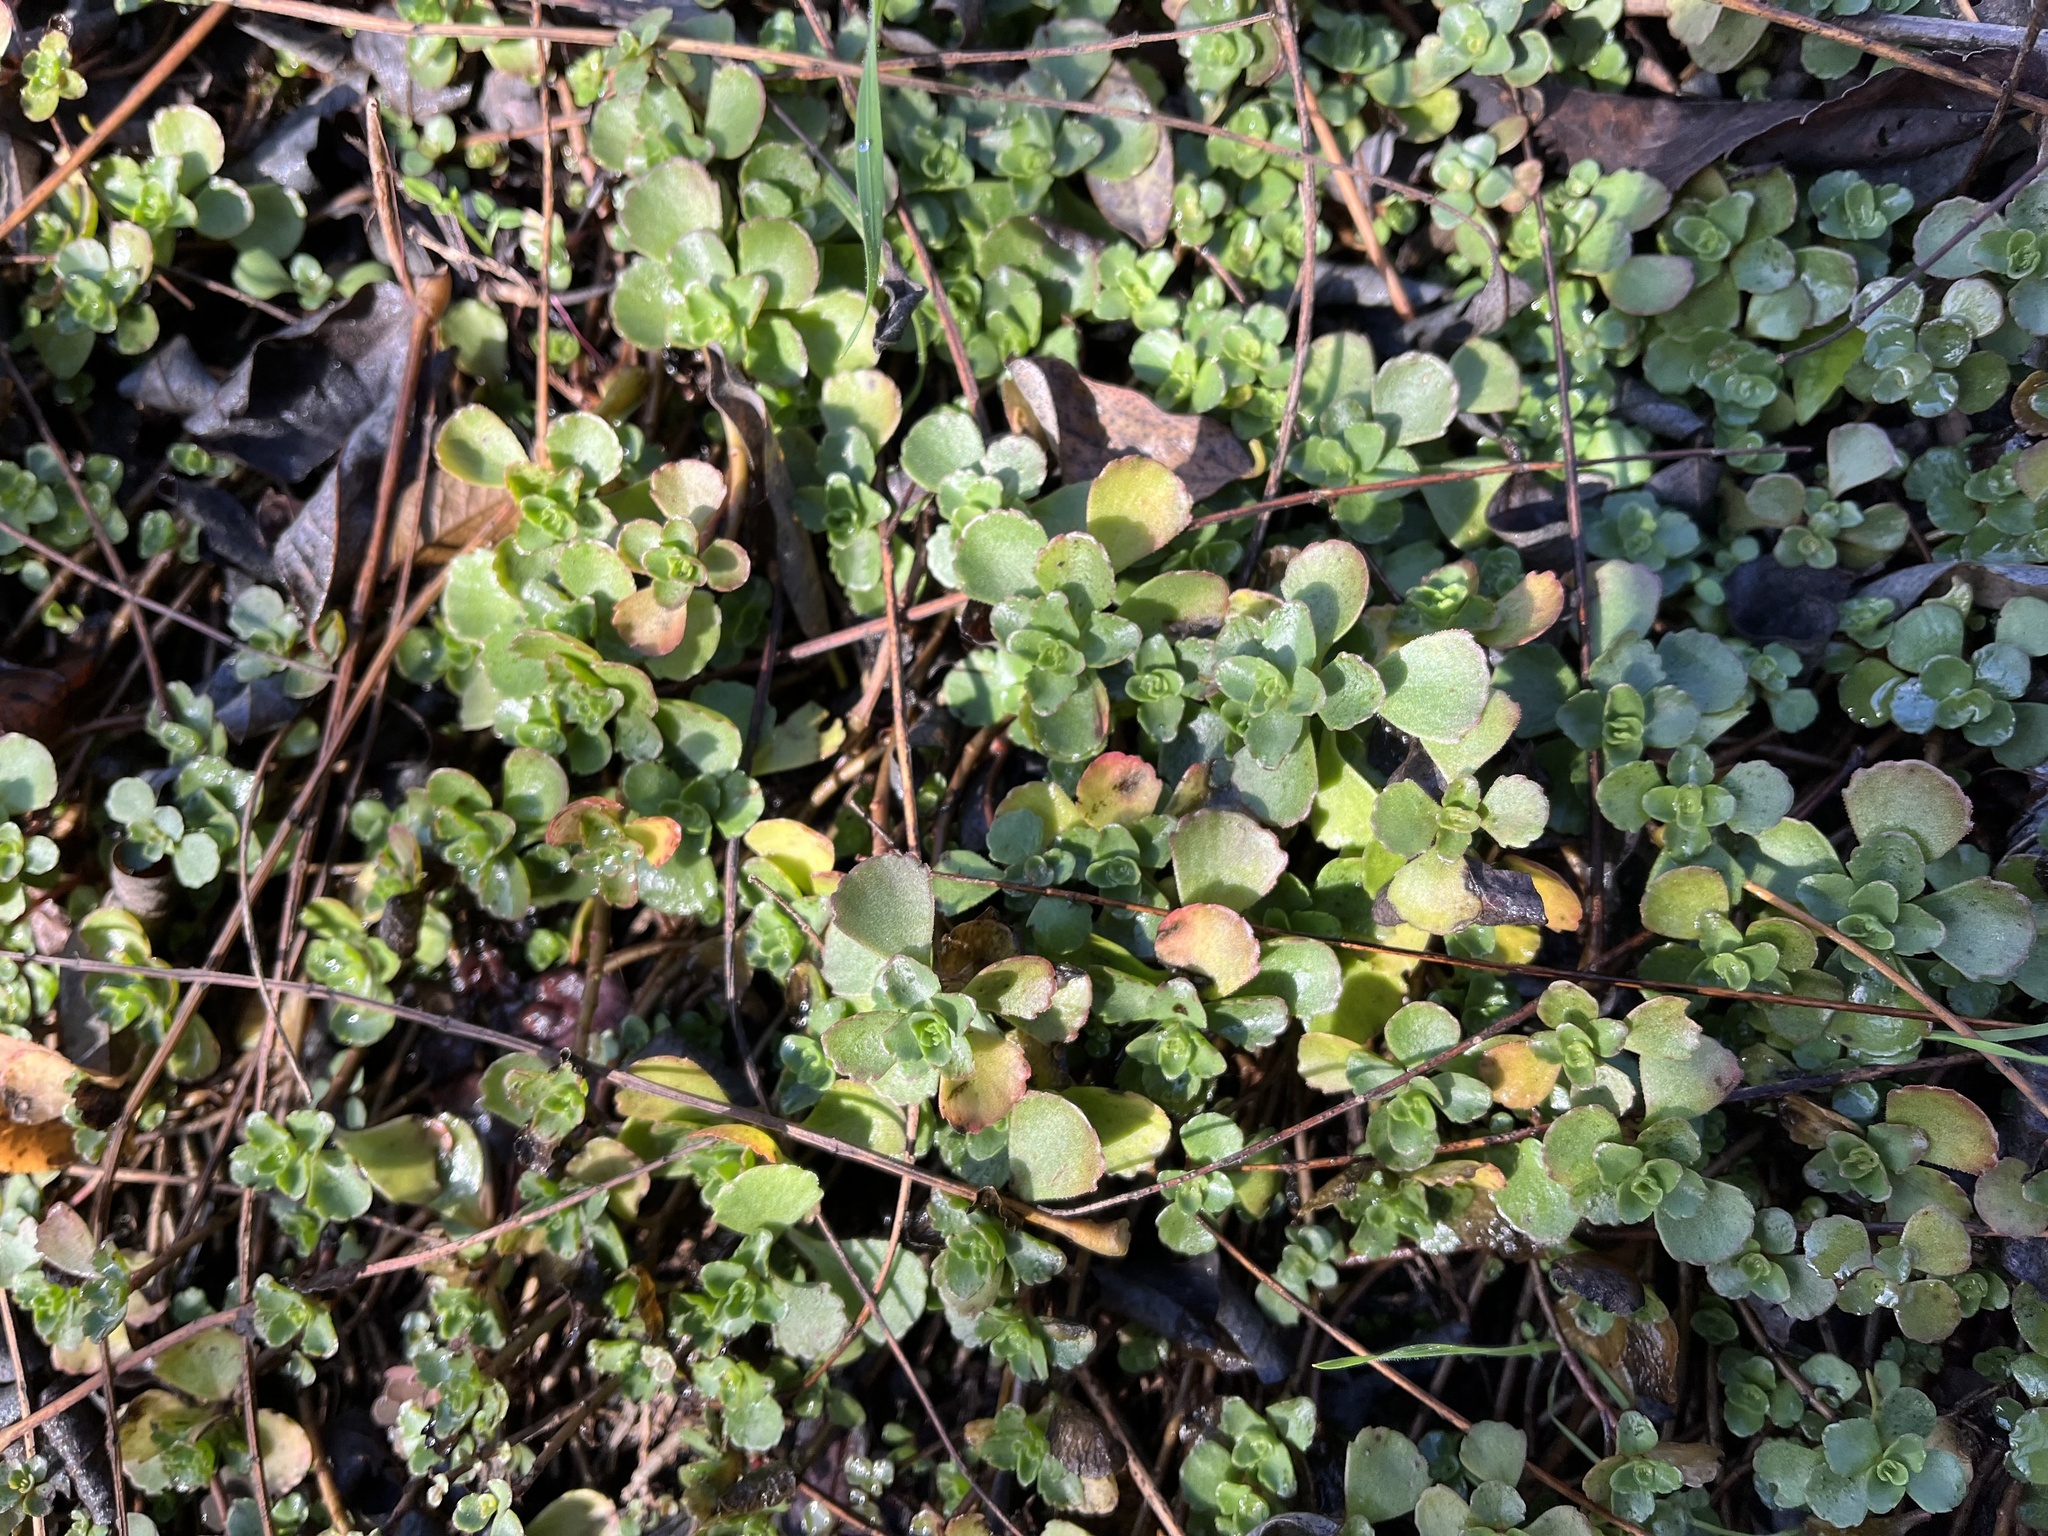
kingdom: Plantae
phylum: Tracheophyta
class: Magnoliopsida
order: Saxifragales
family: Crassulaceae
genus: Phedimus
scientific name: Phedimus spurius
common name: Caucasian stonecrop
